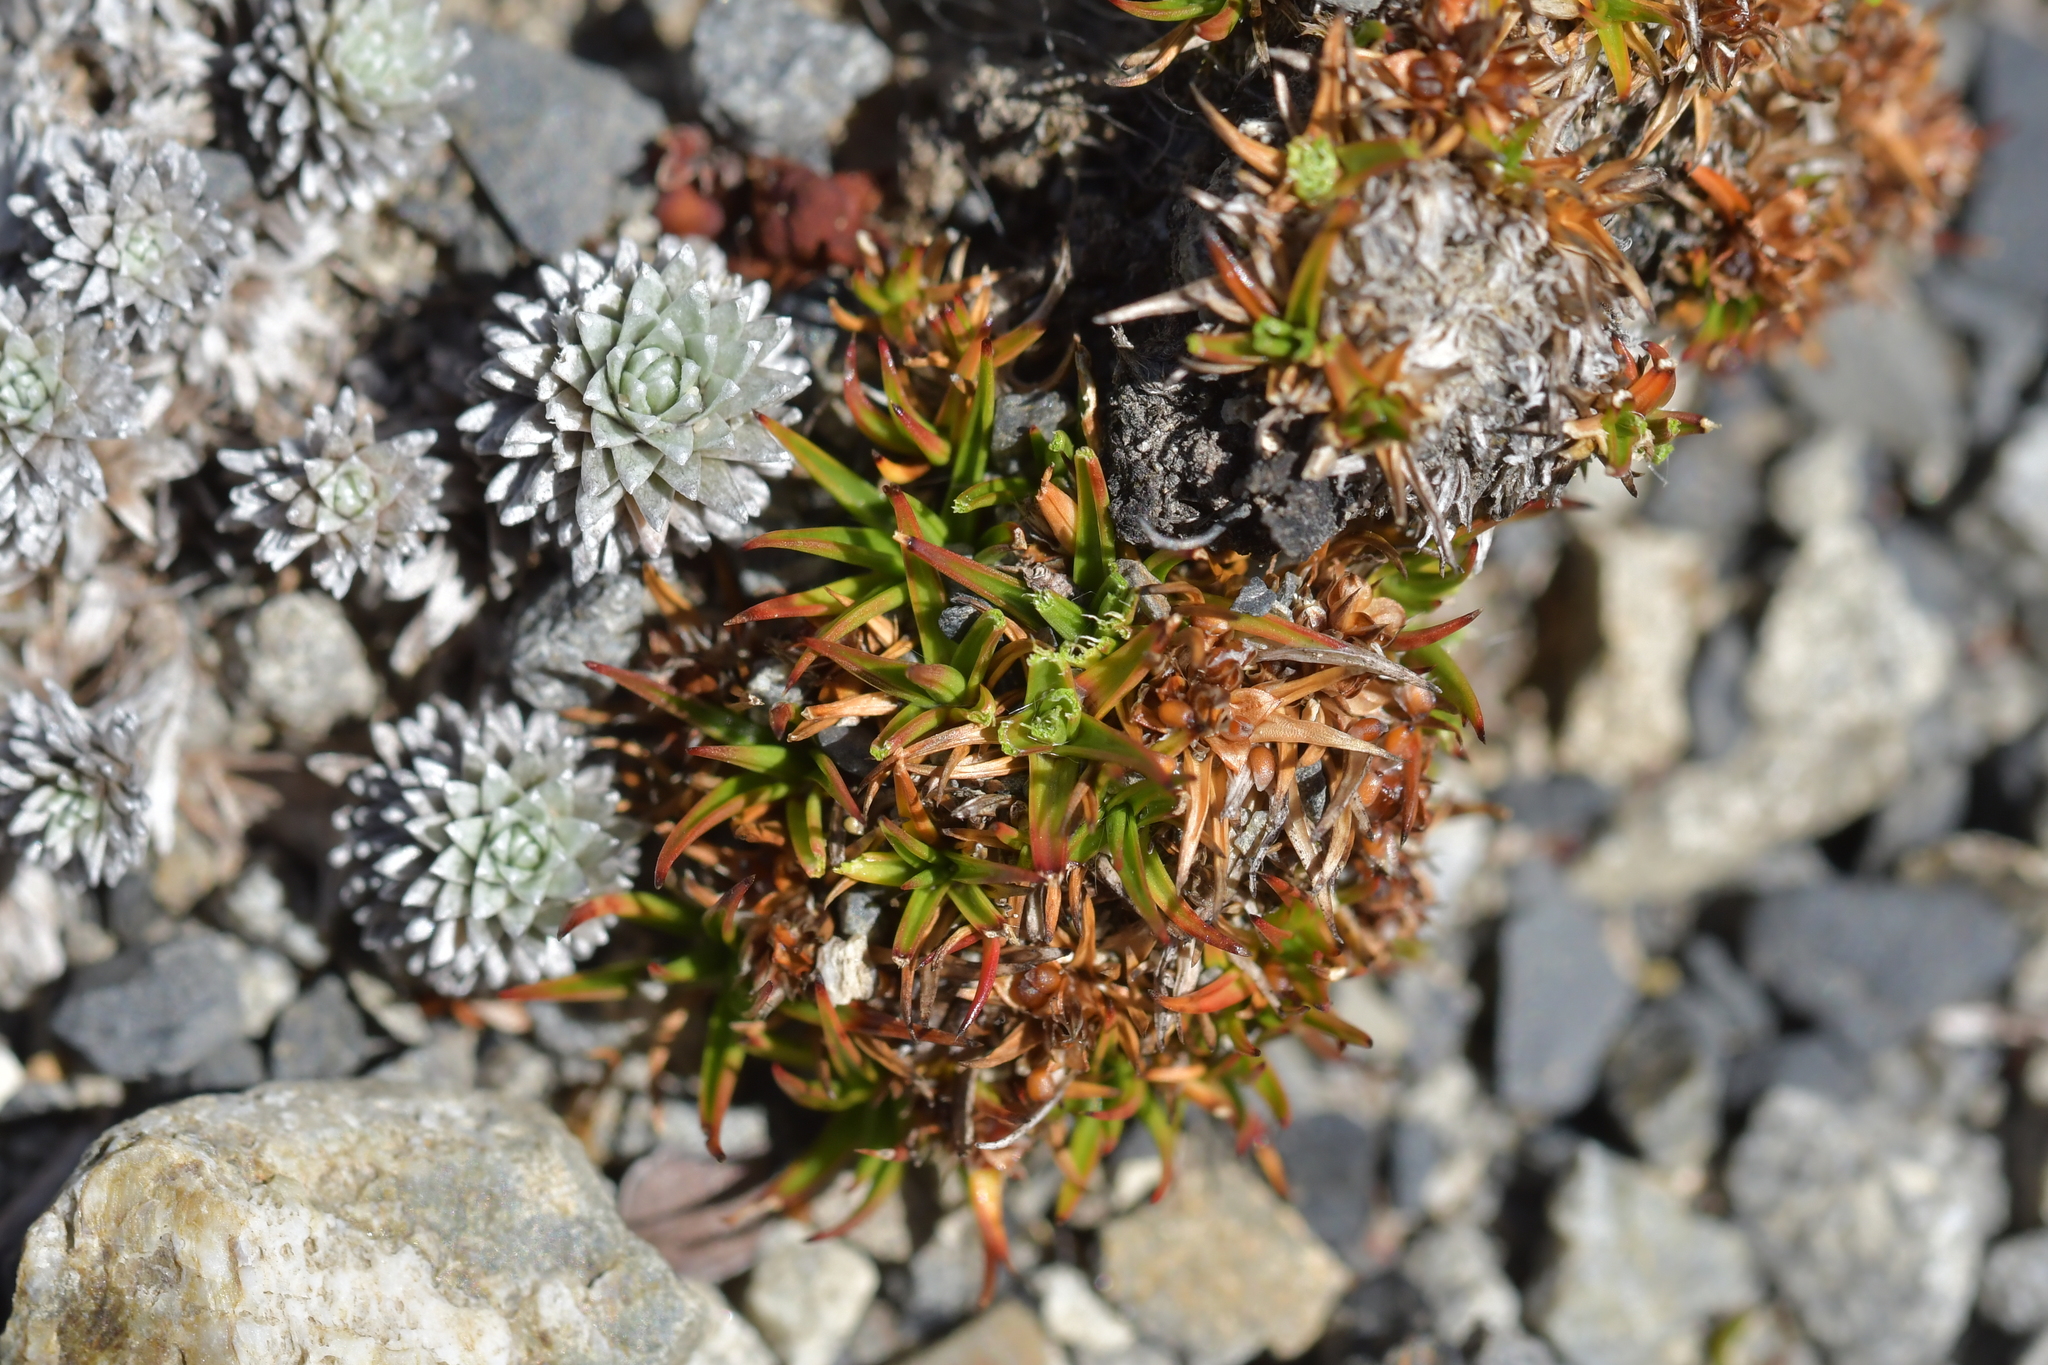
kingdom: Plantae
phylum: Tracheophyta
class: Liliopsida
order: Poales
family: Juncaceae
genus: Luzula
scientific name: Luzula colensoi
